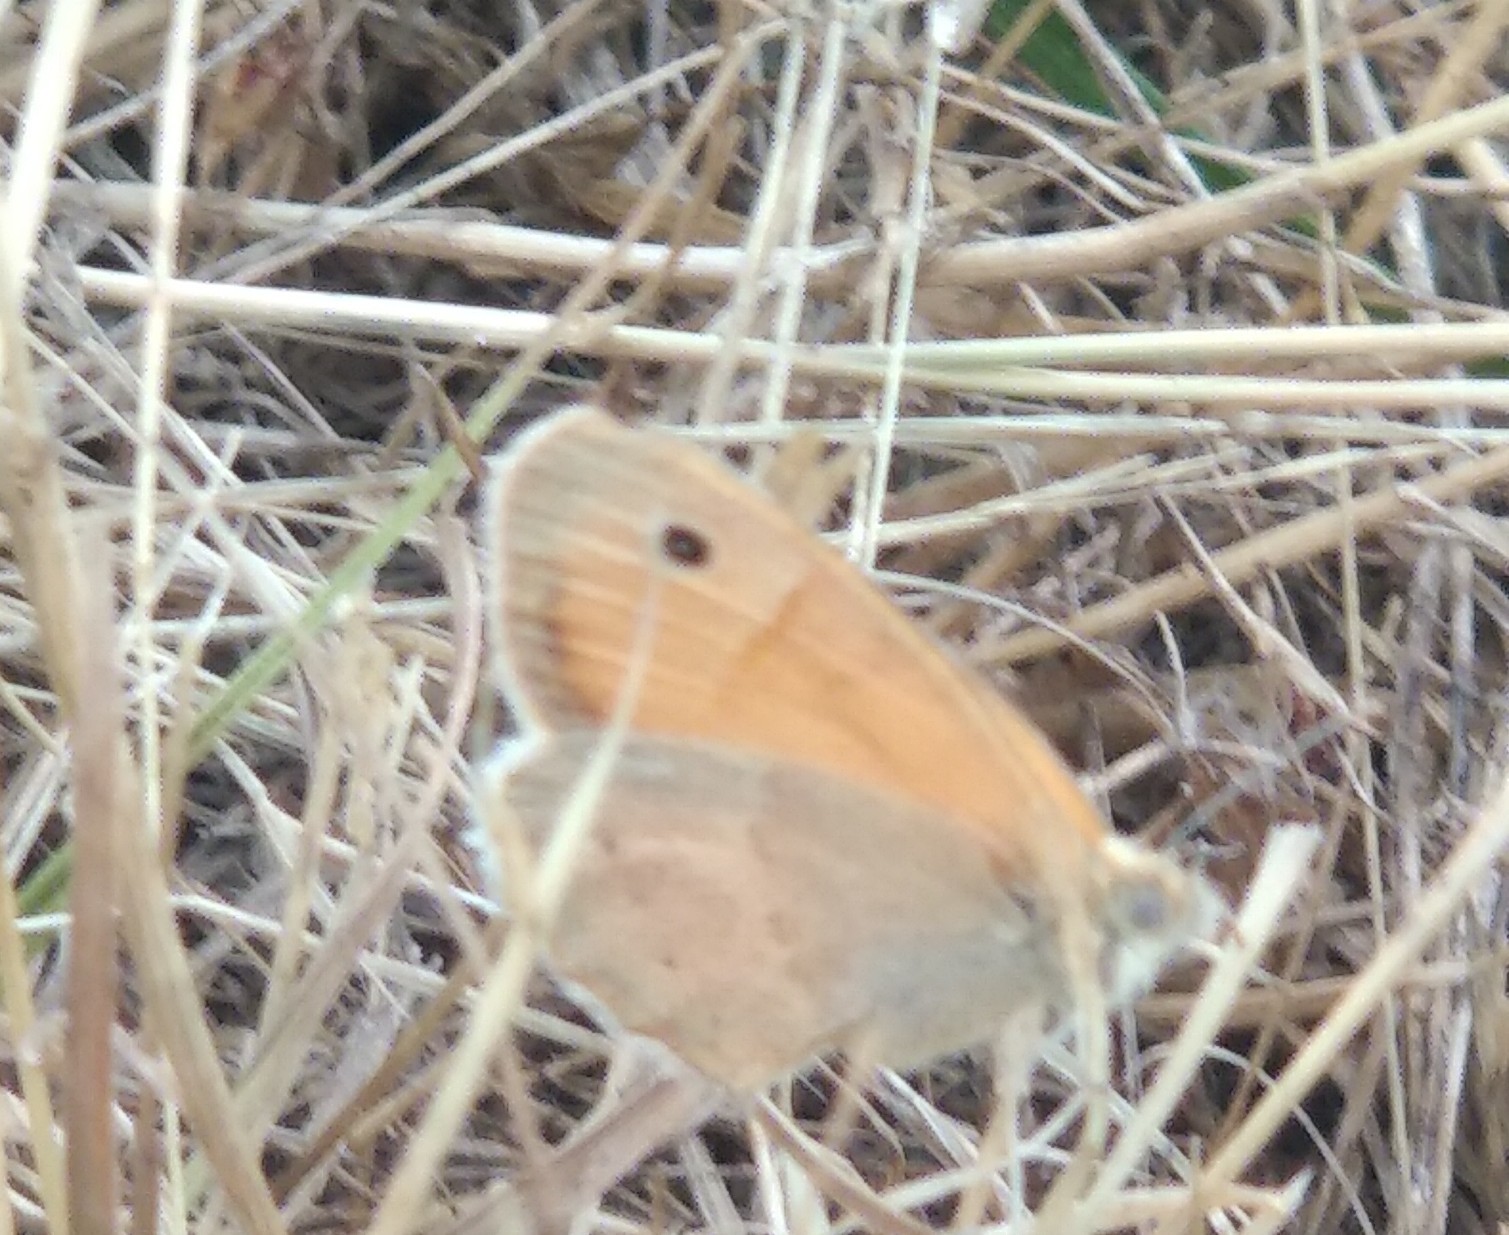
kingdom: Animalia
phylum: Arthropoda
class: Insecta
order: Lepidoptera
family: Nymphalidae
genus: Coenonympha
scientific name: Coenonympha pamphilus
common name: Small heath
